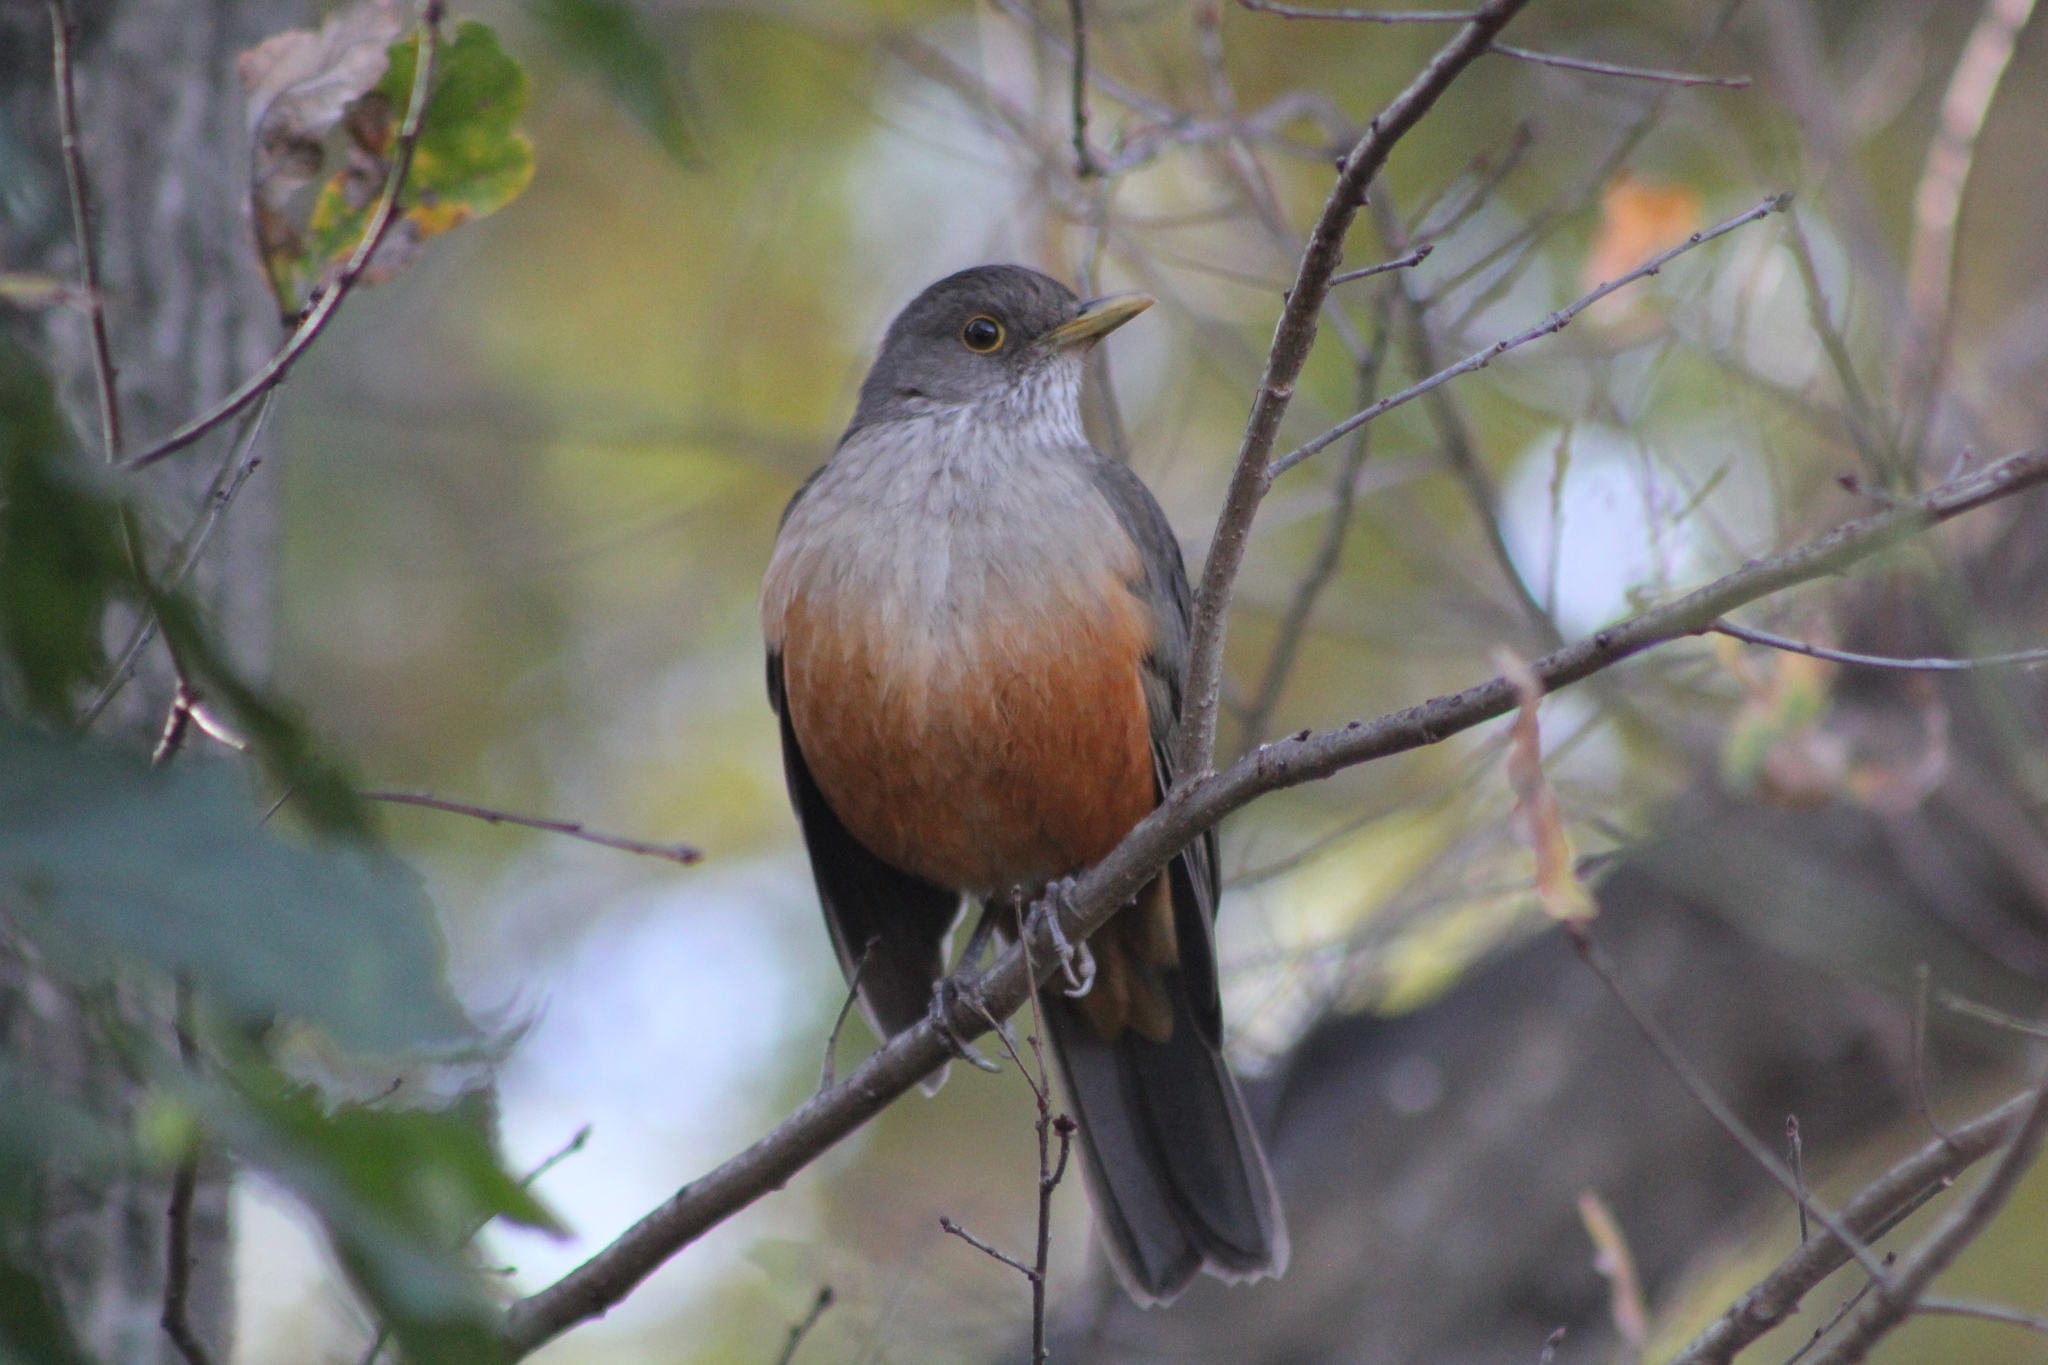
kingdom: Animalia
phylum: Chordata
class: Aves
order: Passeriformes
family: Turdidae
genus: Turdus
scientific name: Turdus rufiventris
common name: Rufous-bellied thrush
